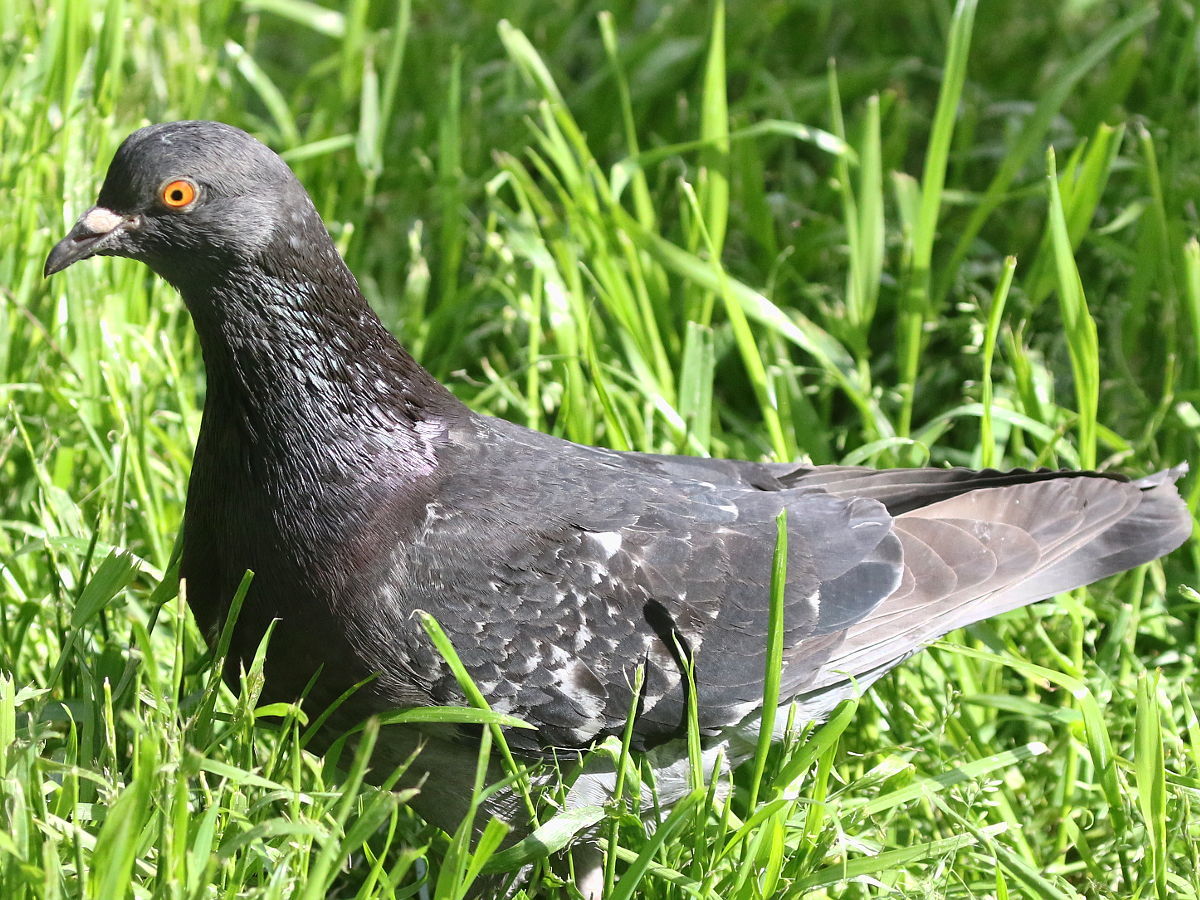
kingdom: Animalia
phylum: Chordata
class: Aves
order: Columbiformes
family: Columbidae
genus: Columba
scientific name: Columba livia
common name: Rock pigeon
